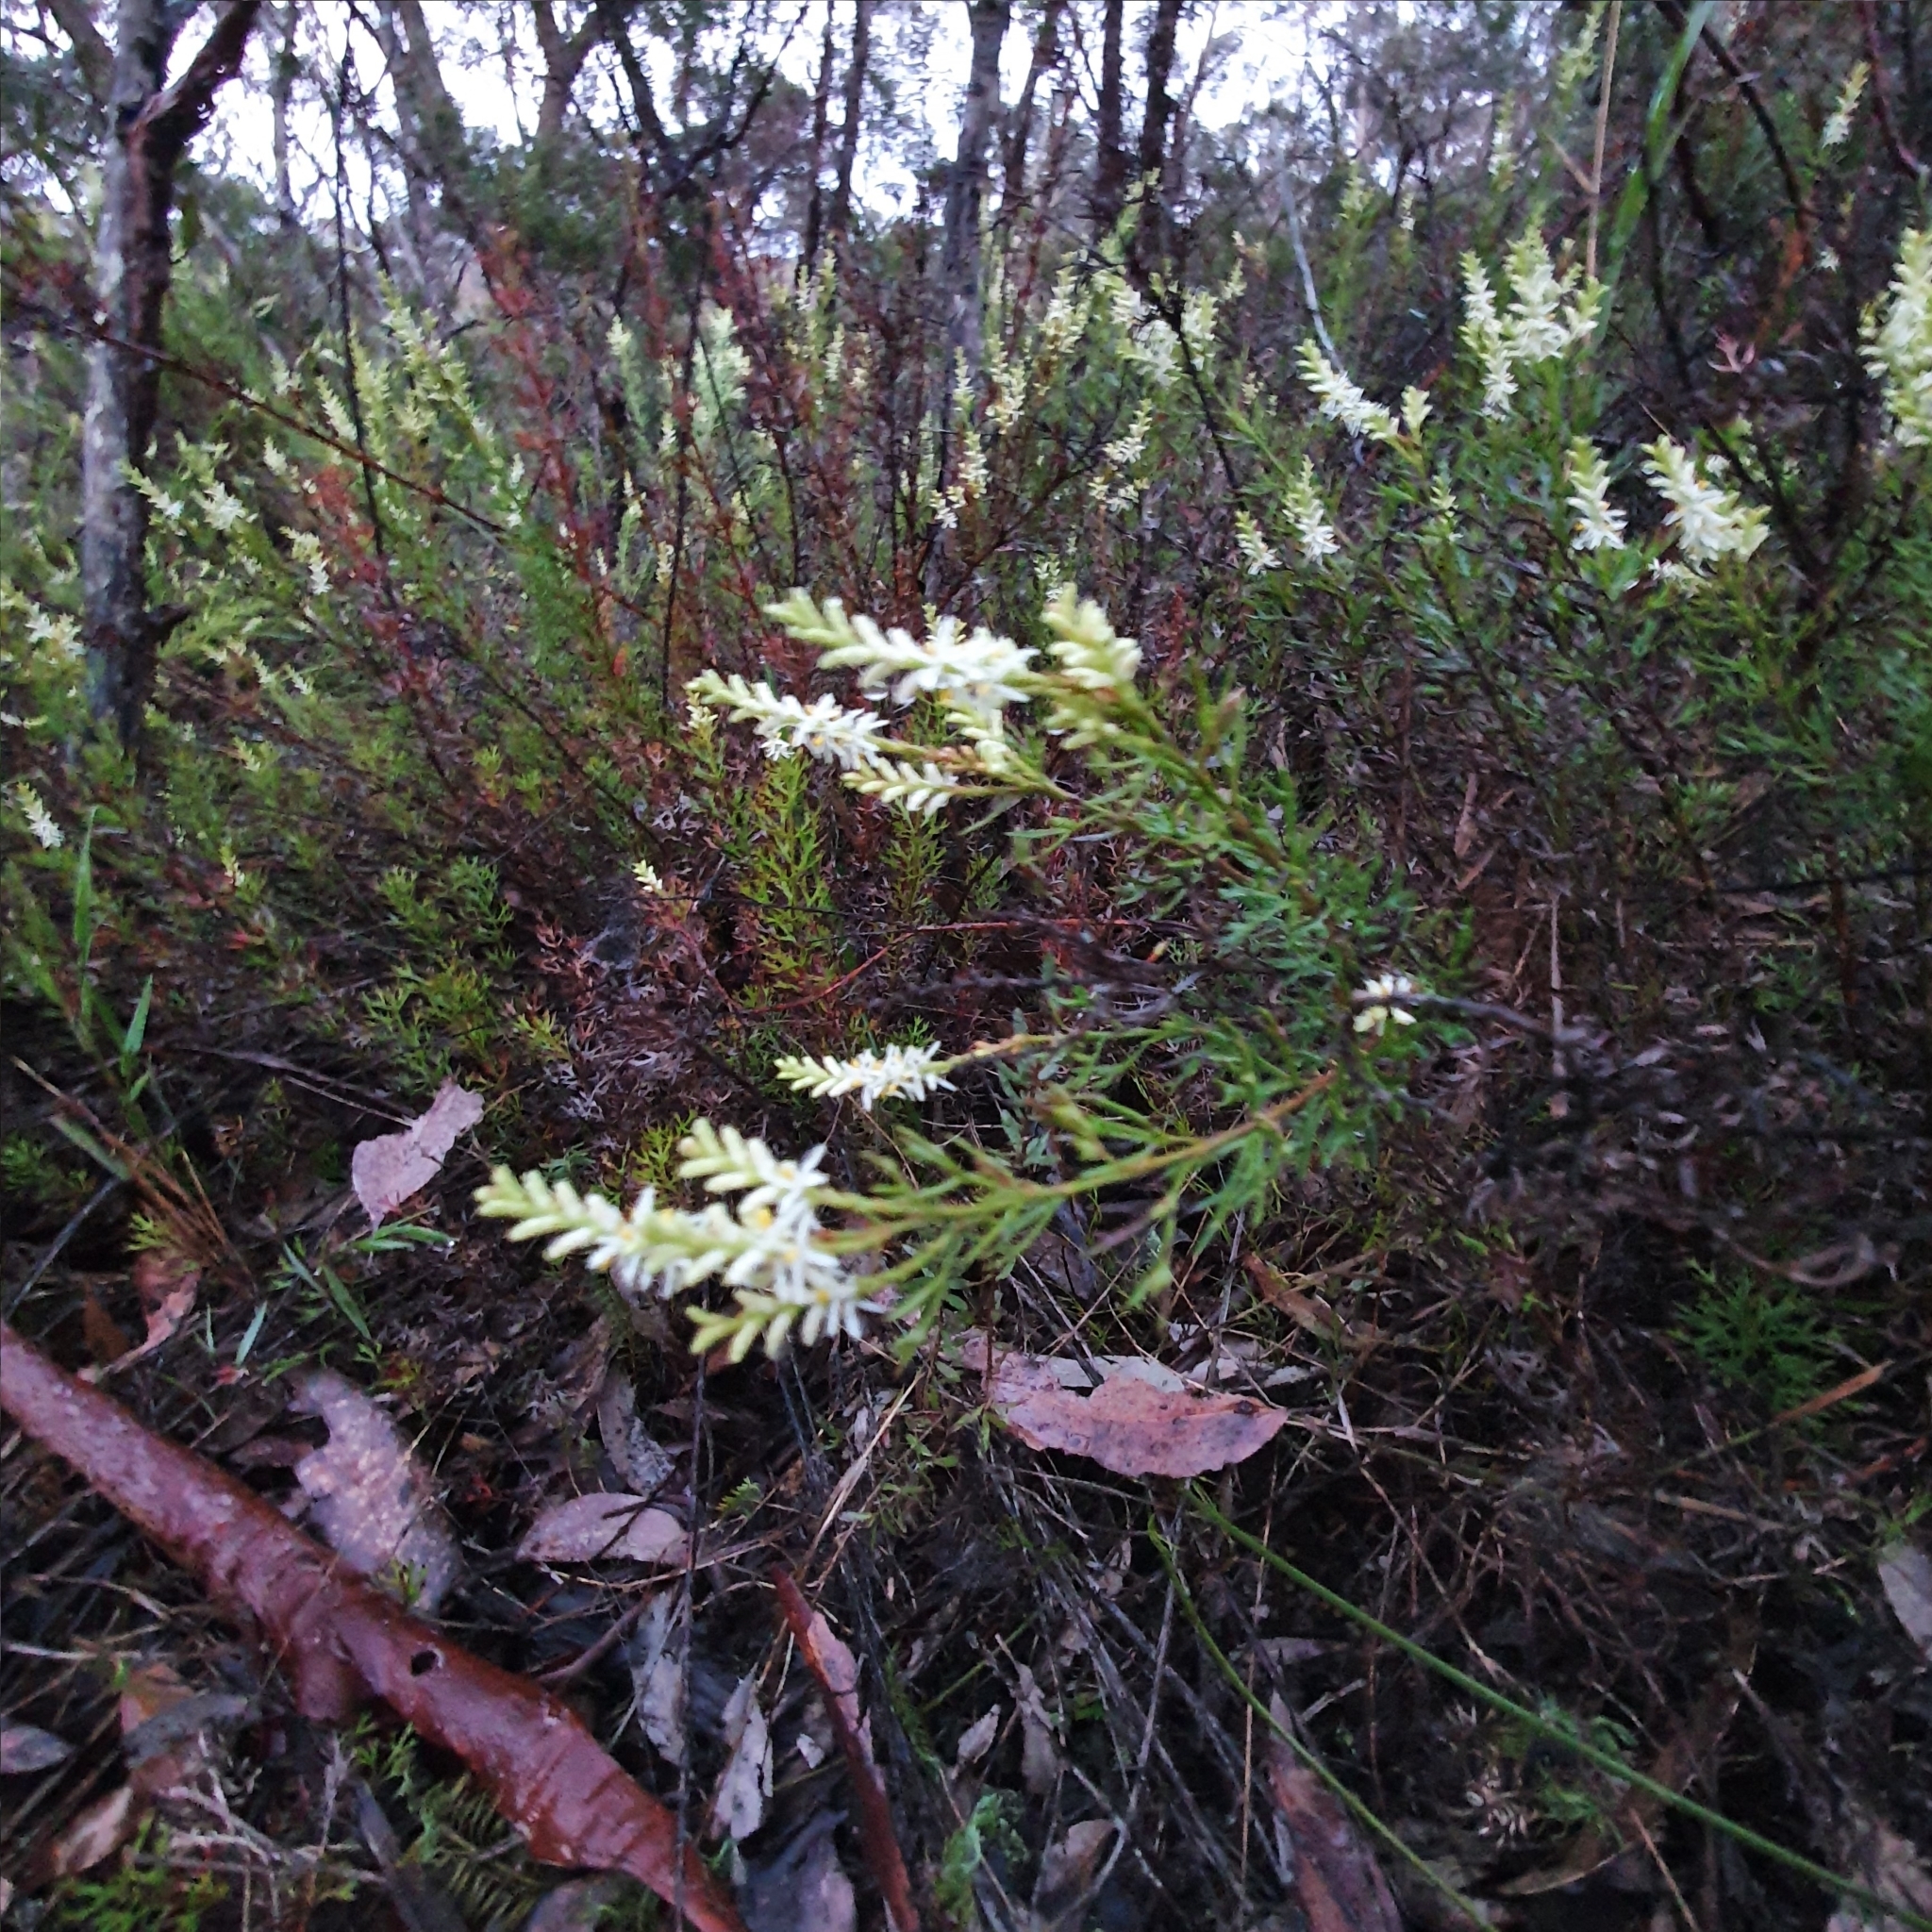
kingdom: Plantae
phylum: Tracheophyta
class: Magnoliopsida
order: Proteales
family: Proteaceae
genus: Symphionema
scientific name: Symphionema montanum
